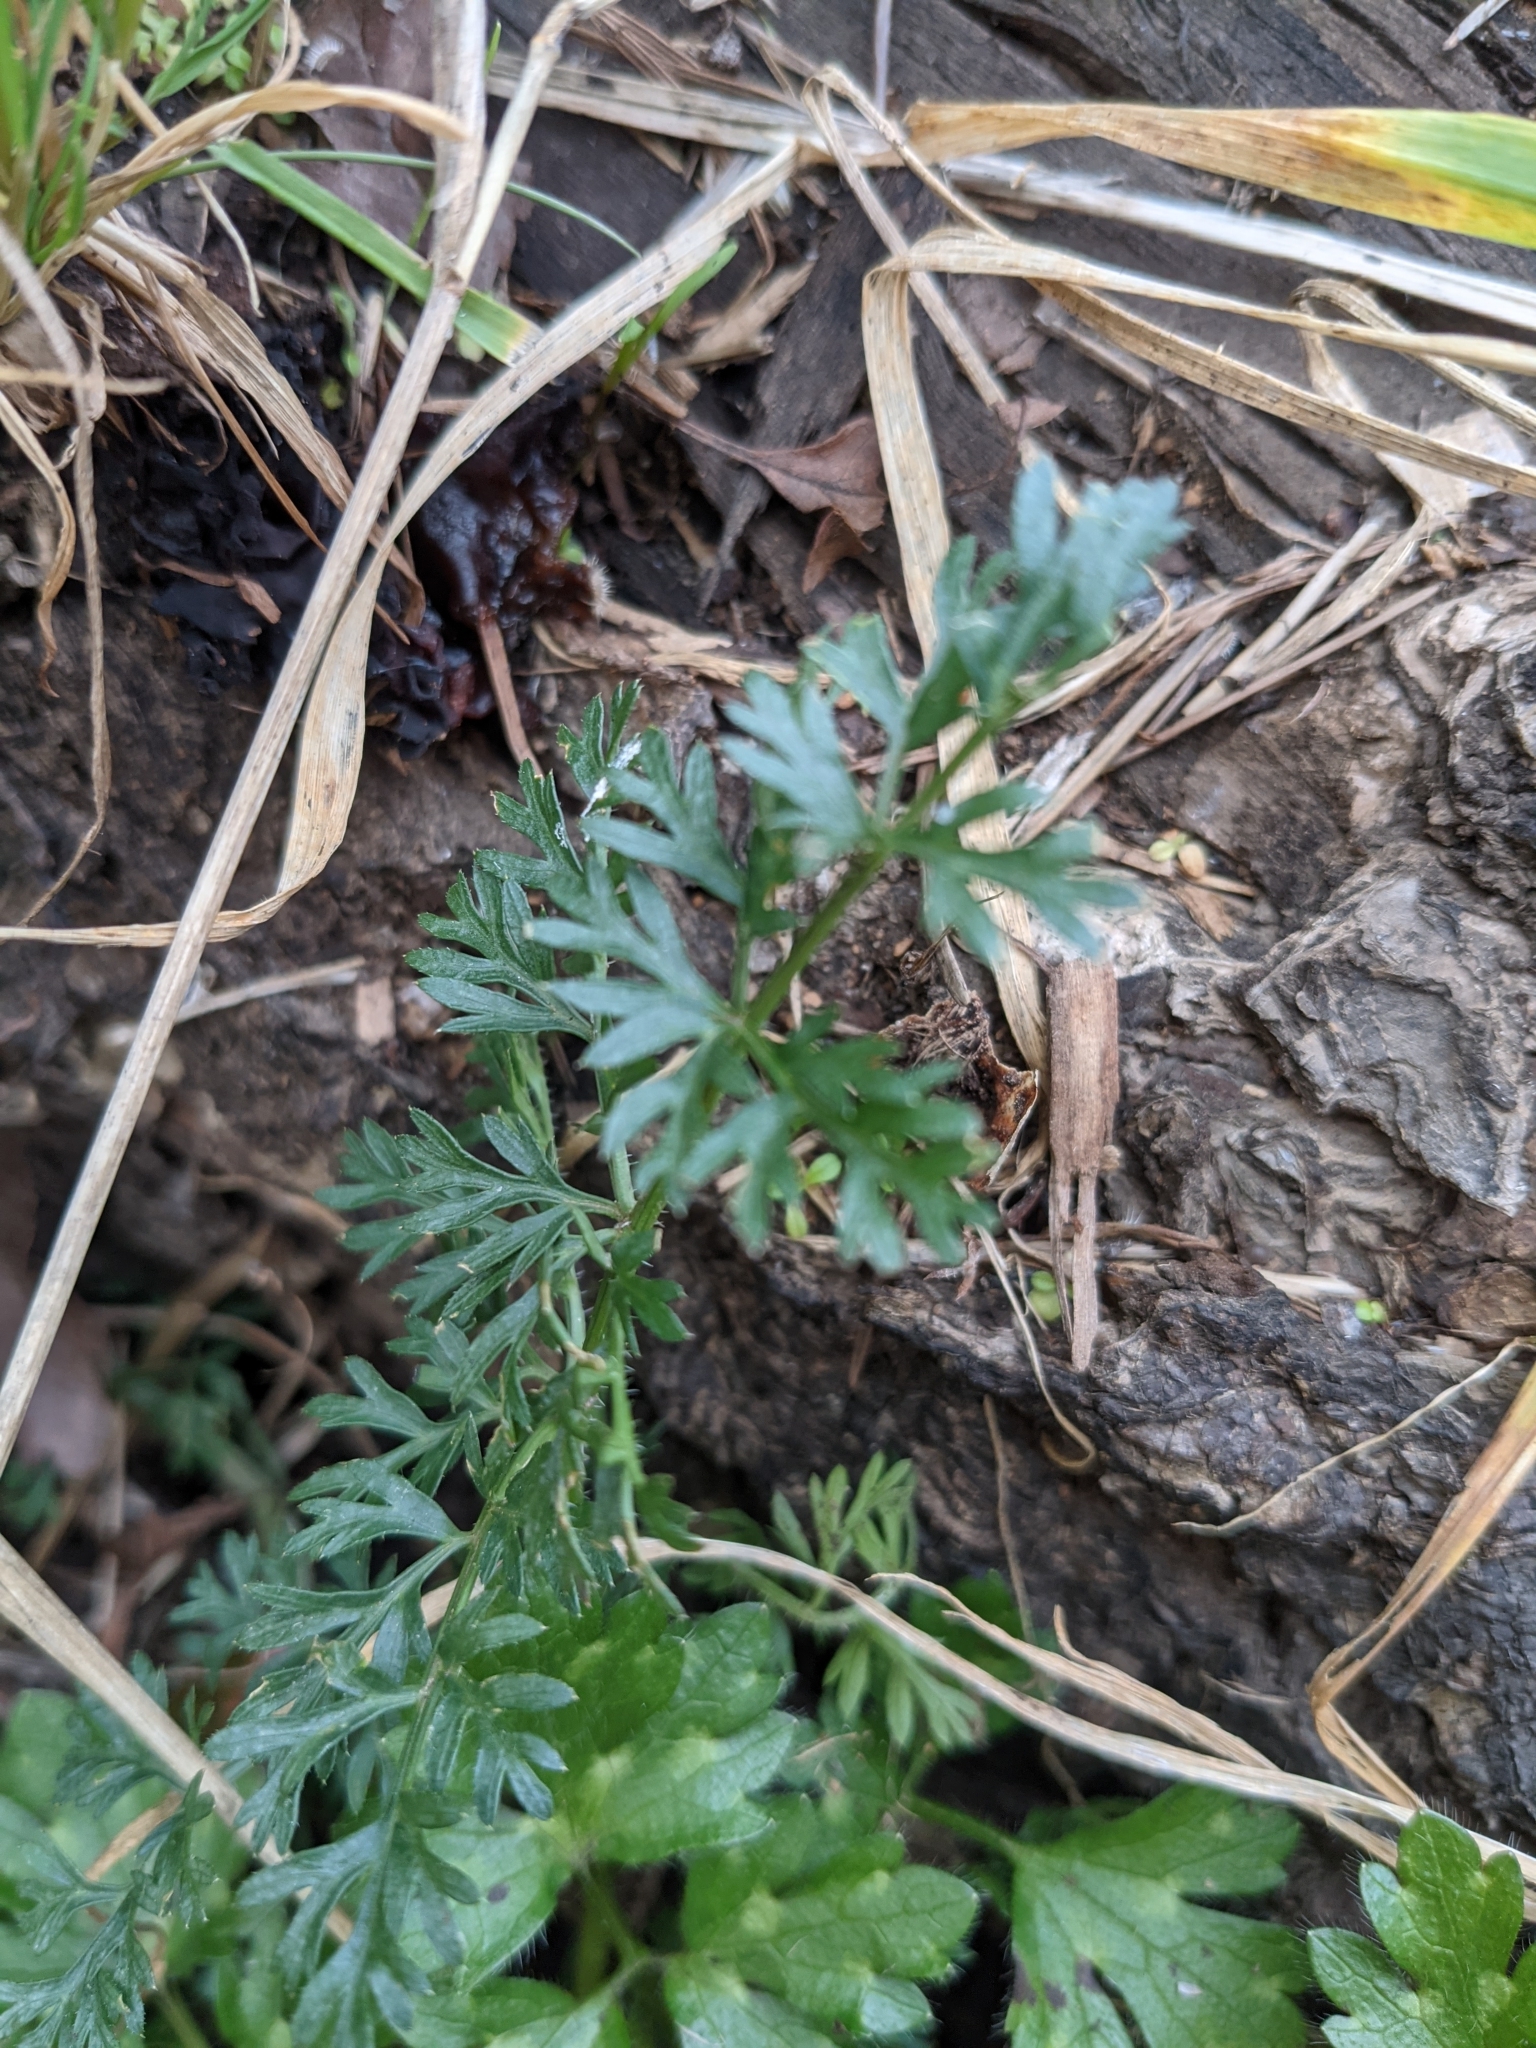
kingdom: Plantae
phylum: Tracheophyta
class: Magnoliopsida
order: Apiales
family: Apiaceae
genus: Daucus
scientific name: Daucus carota
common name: Wild carrot
